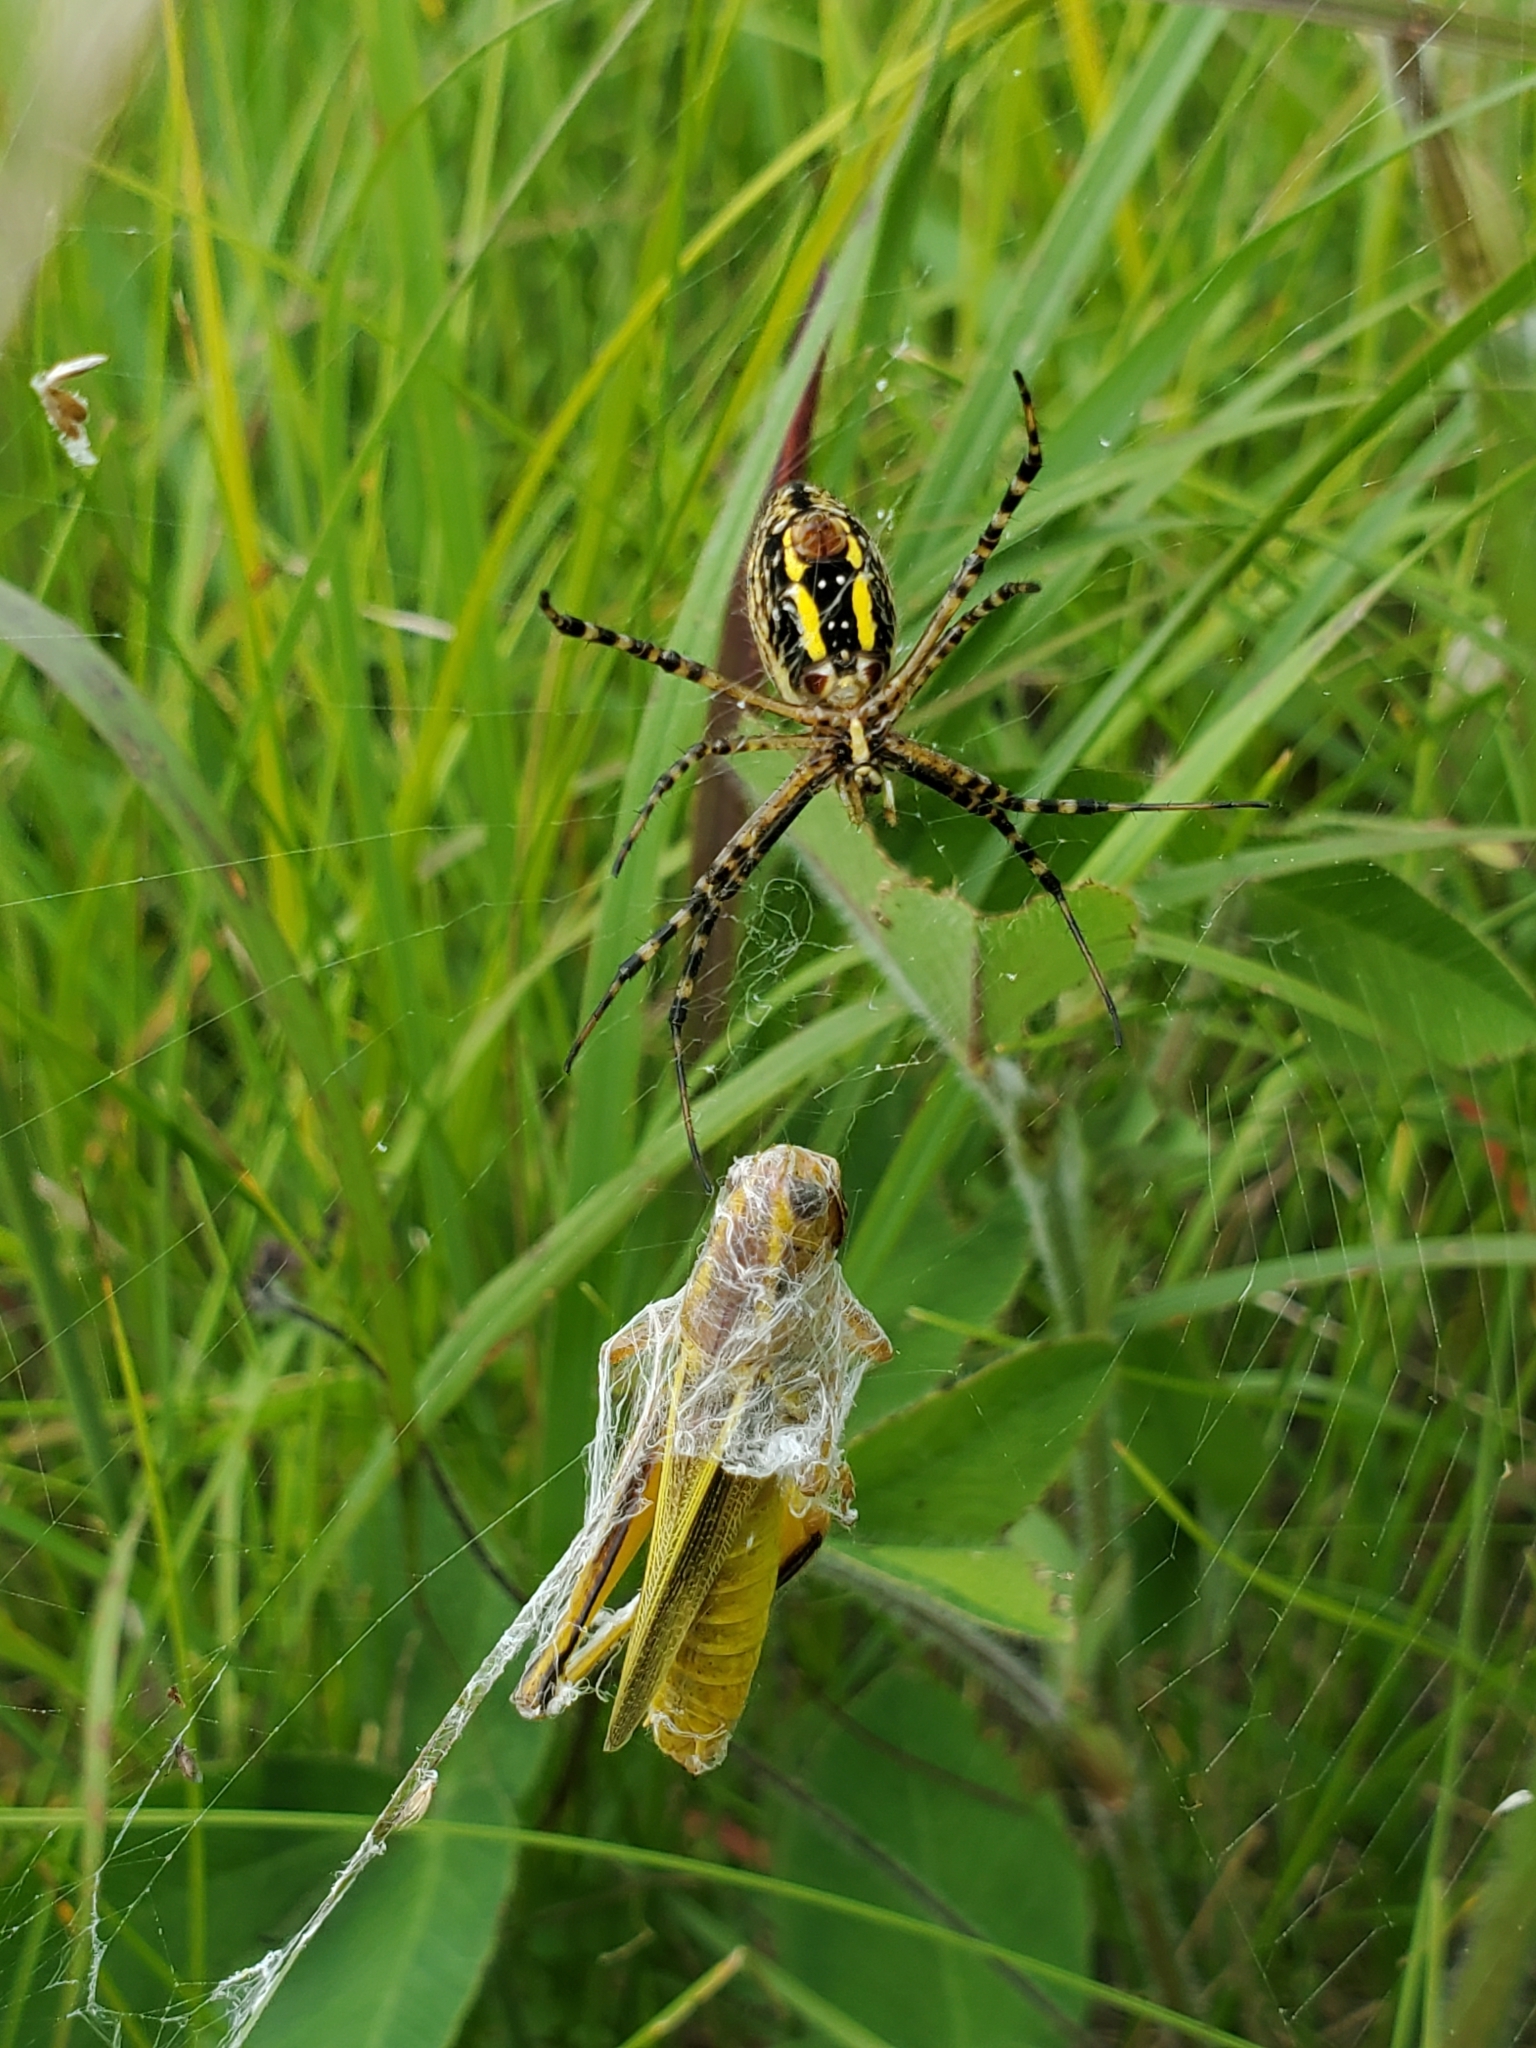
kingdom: Animalia
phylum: Arthropoda
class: Arachnida
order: Araneae
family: Araneidae
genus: Argiope
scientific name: Argiope trifasciata
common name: Banded garden spider
